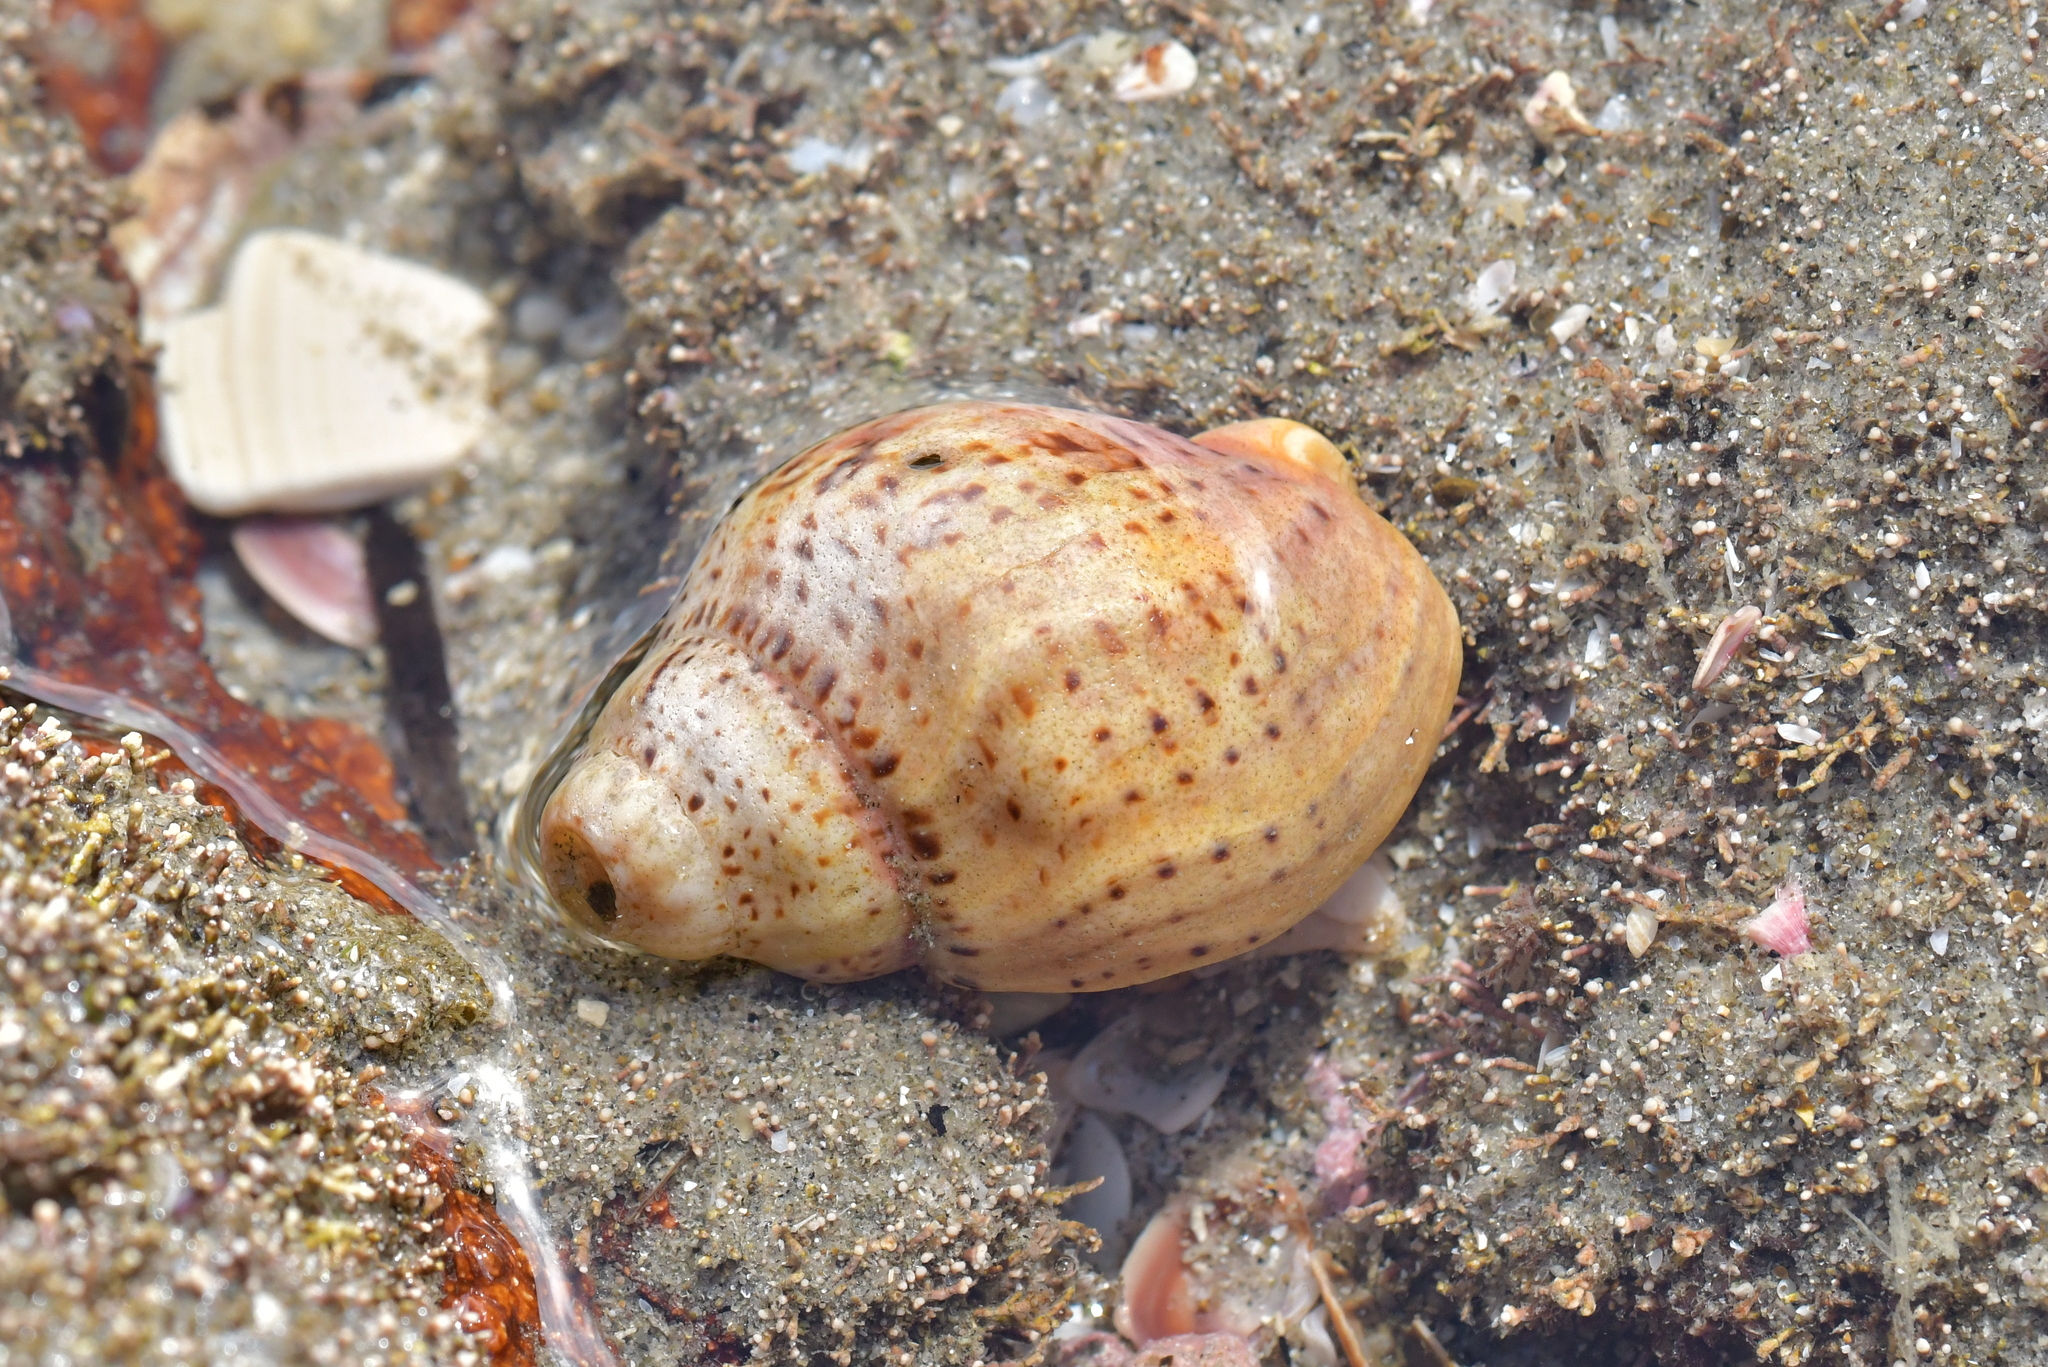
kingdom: Animalia
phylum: Mollusca
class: Gastropoda
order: Neogastropoda
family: Cominellidae
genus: Cominella
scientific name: Cominella adspersa
